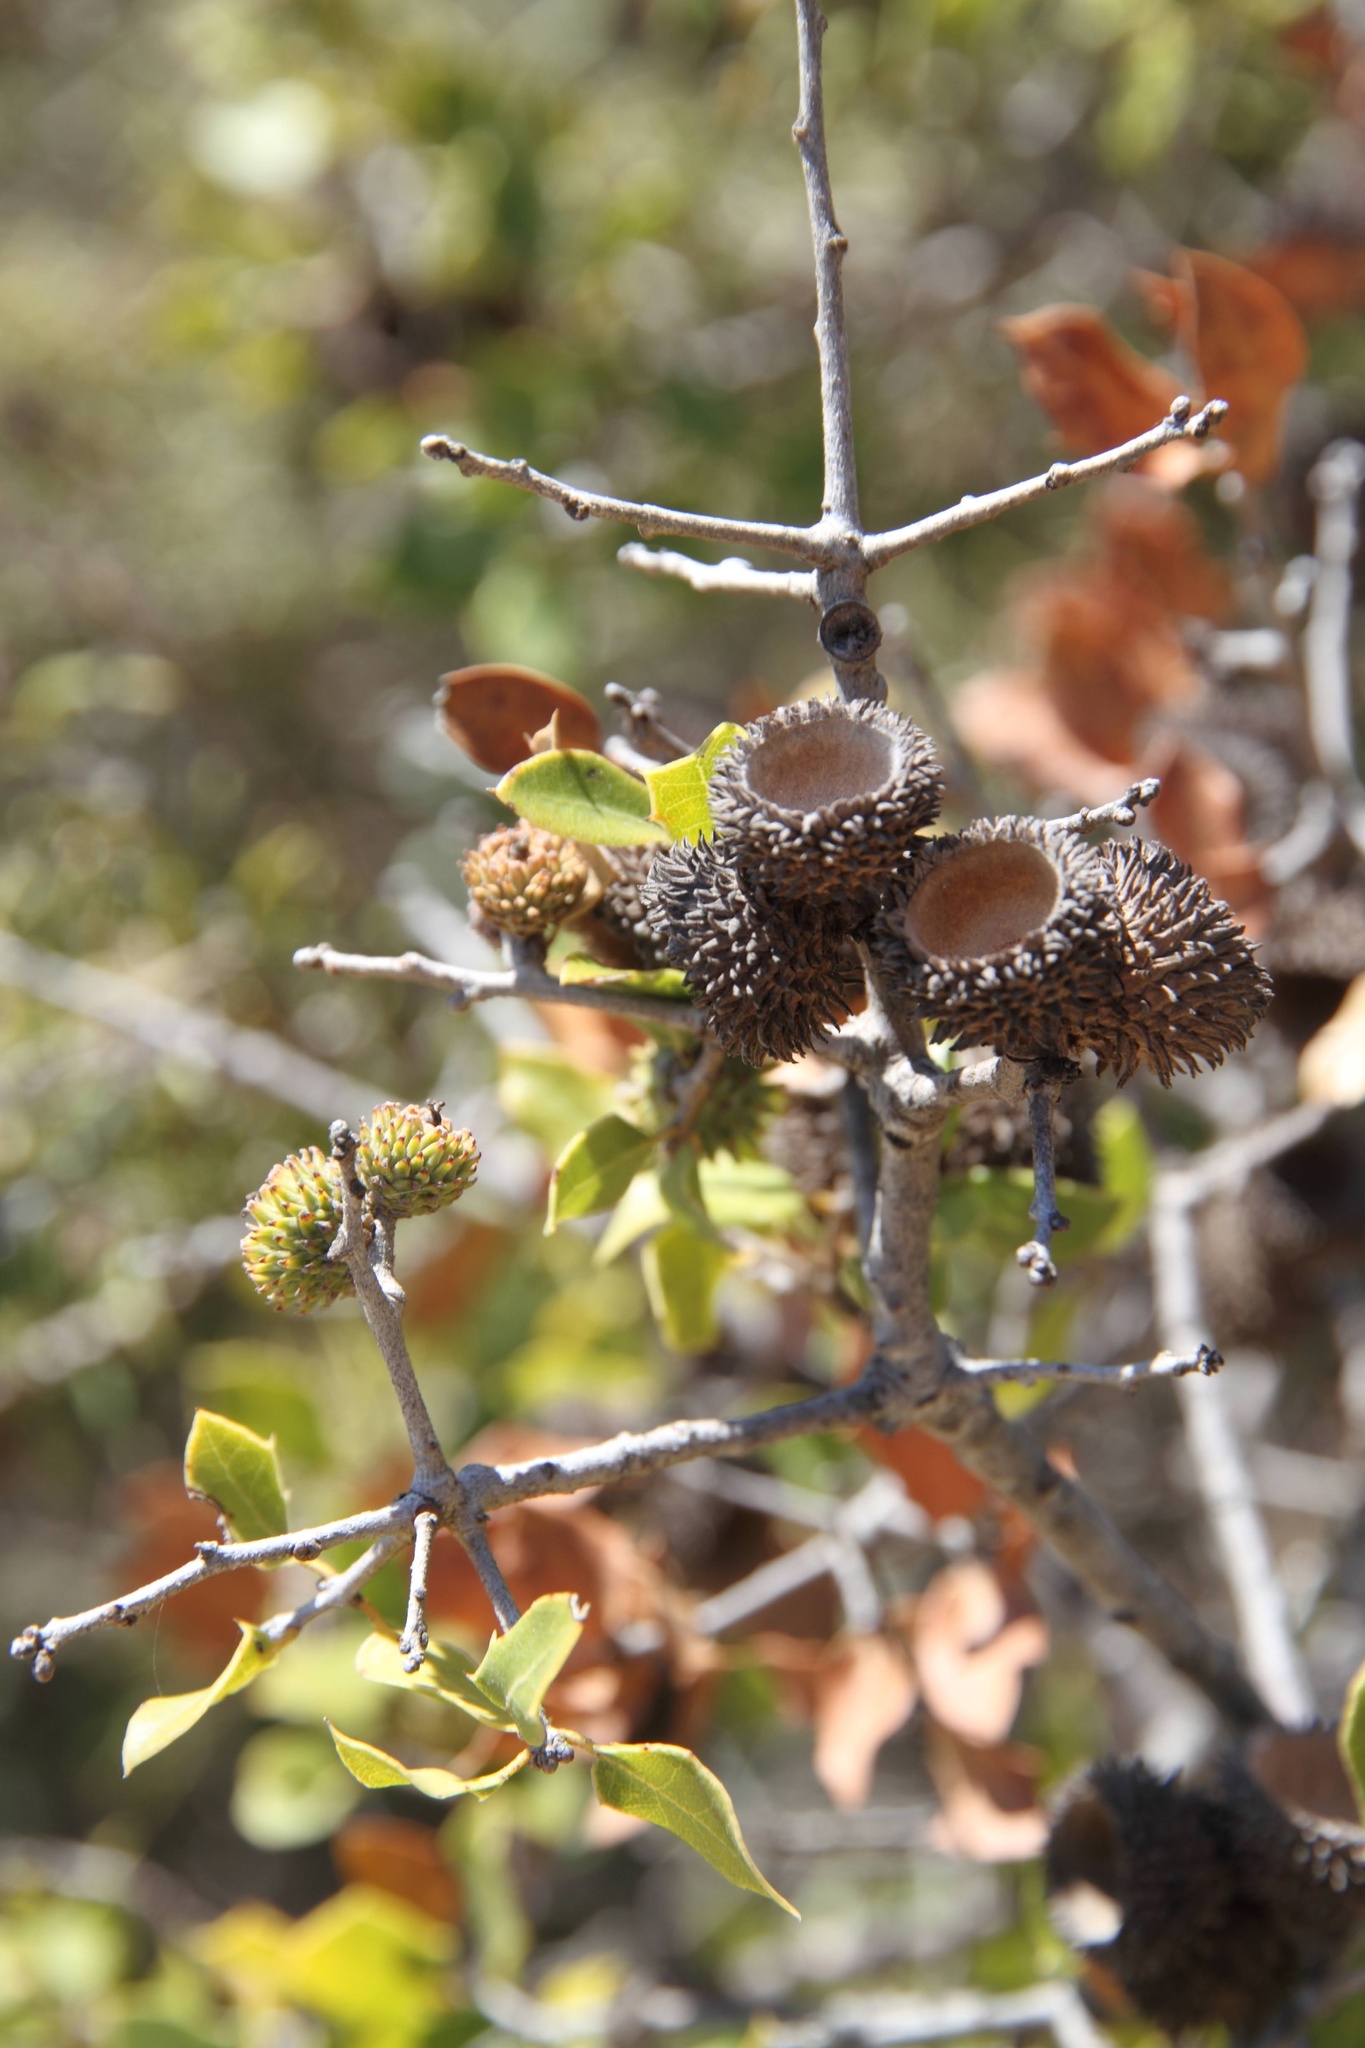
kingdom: Plantae
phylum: Tracheophyta
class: Magnoliopsida
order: Fagales
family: Fagaceae
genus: Quercus
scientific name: Quercus coccifera
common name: Kermes oak
